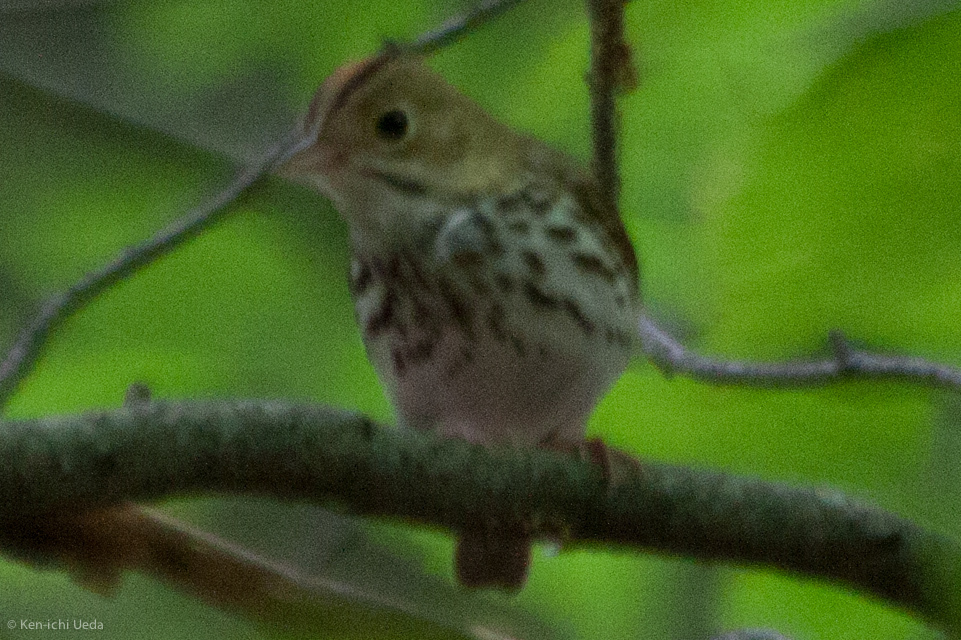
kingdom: Animalia
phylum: Chordata
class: Aves
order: Passeriformes
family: Parulidae
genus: Seiurus
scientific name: Seiurus aurocapilla
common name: Ovenbird
